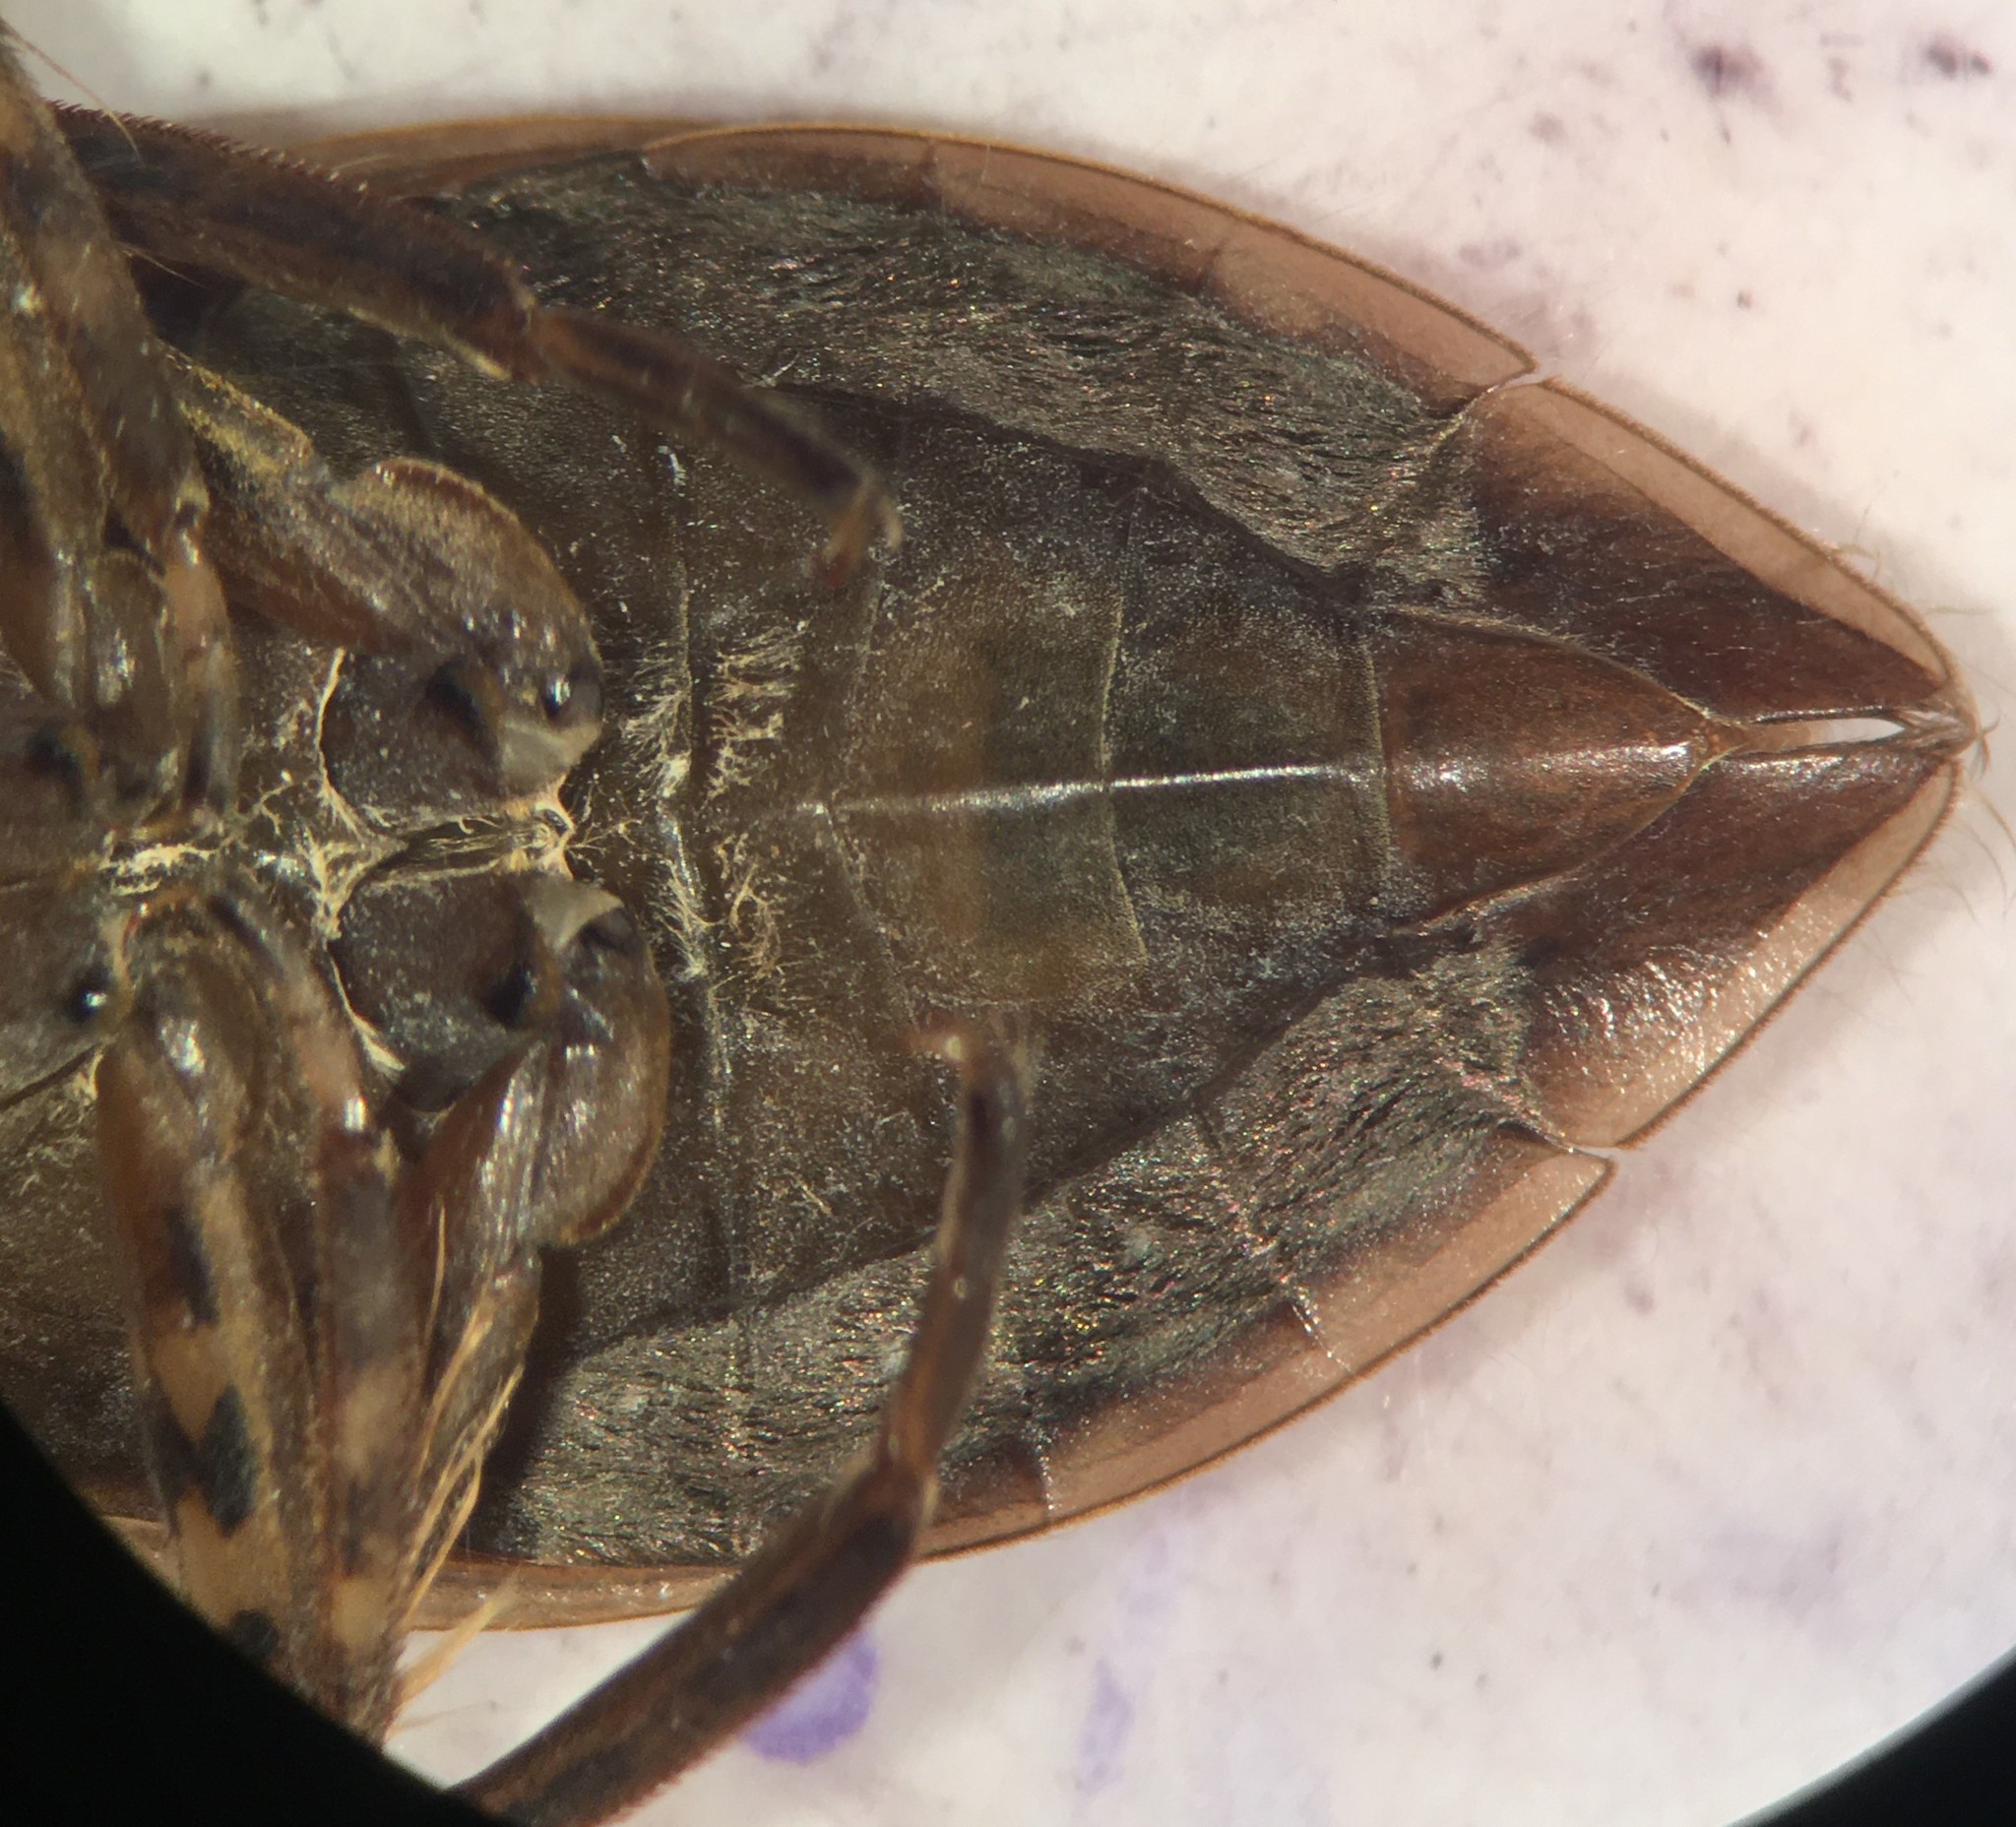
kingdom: Animalia
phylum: Arthropoda
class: Insecta
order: Hemiptera
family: Belostomatidae
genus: Belostoma
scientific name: Belostoma lutarium
